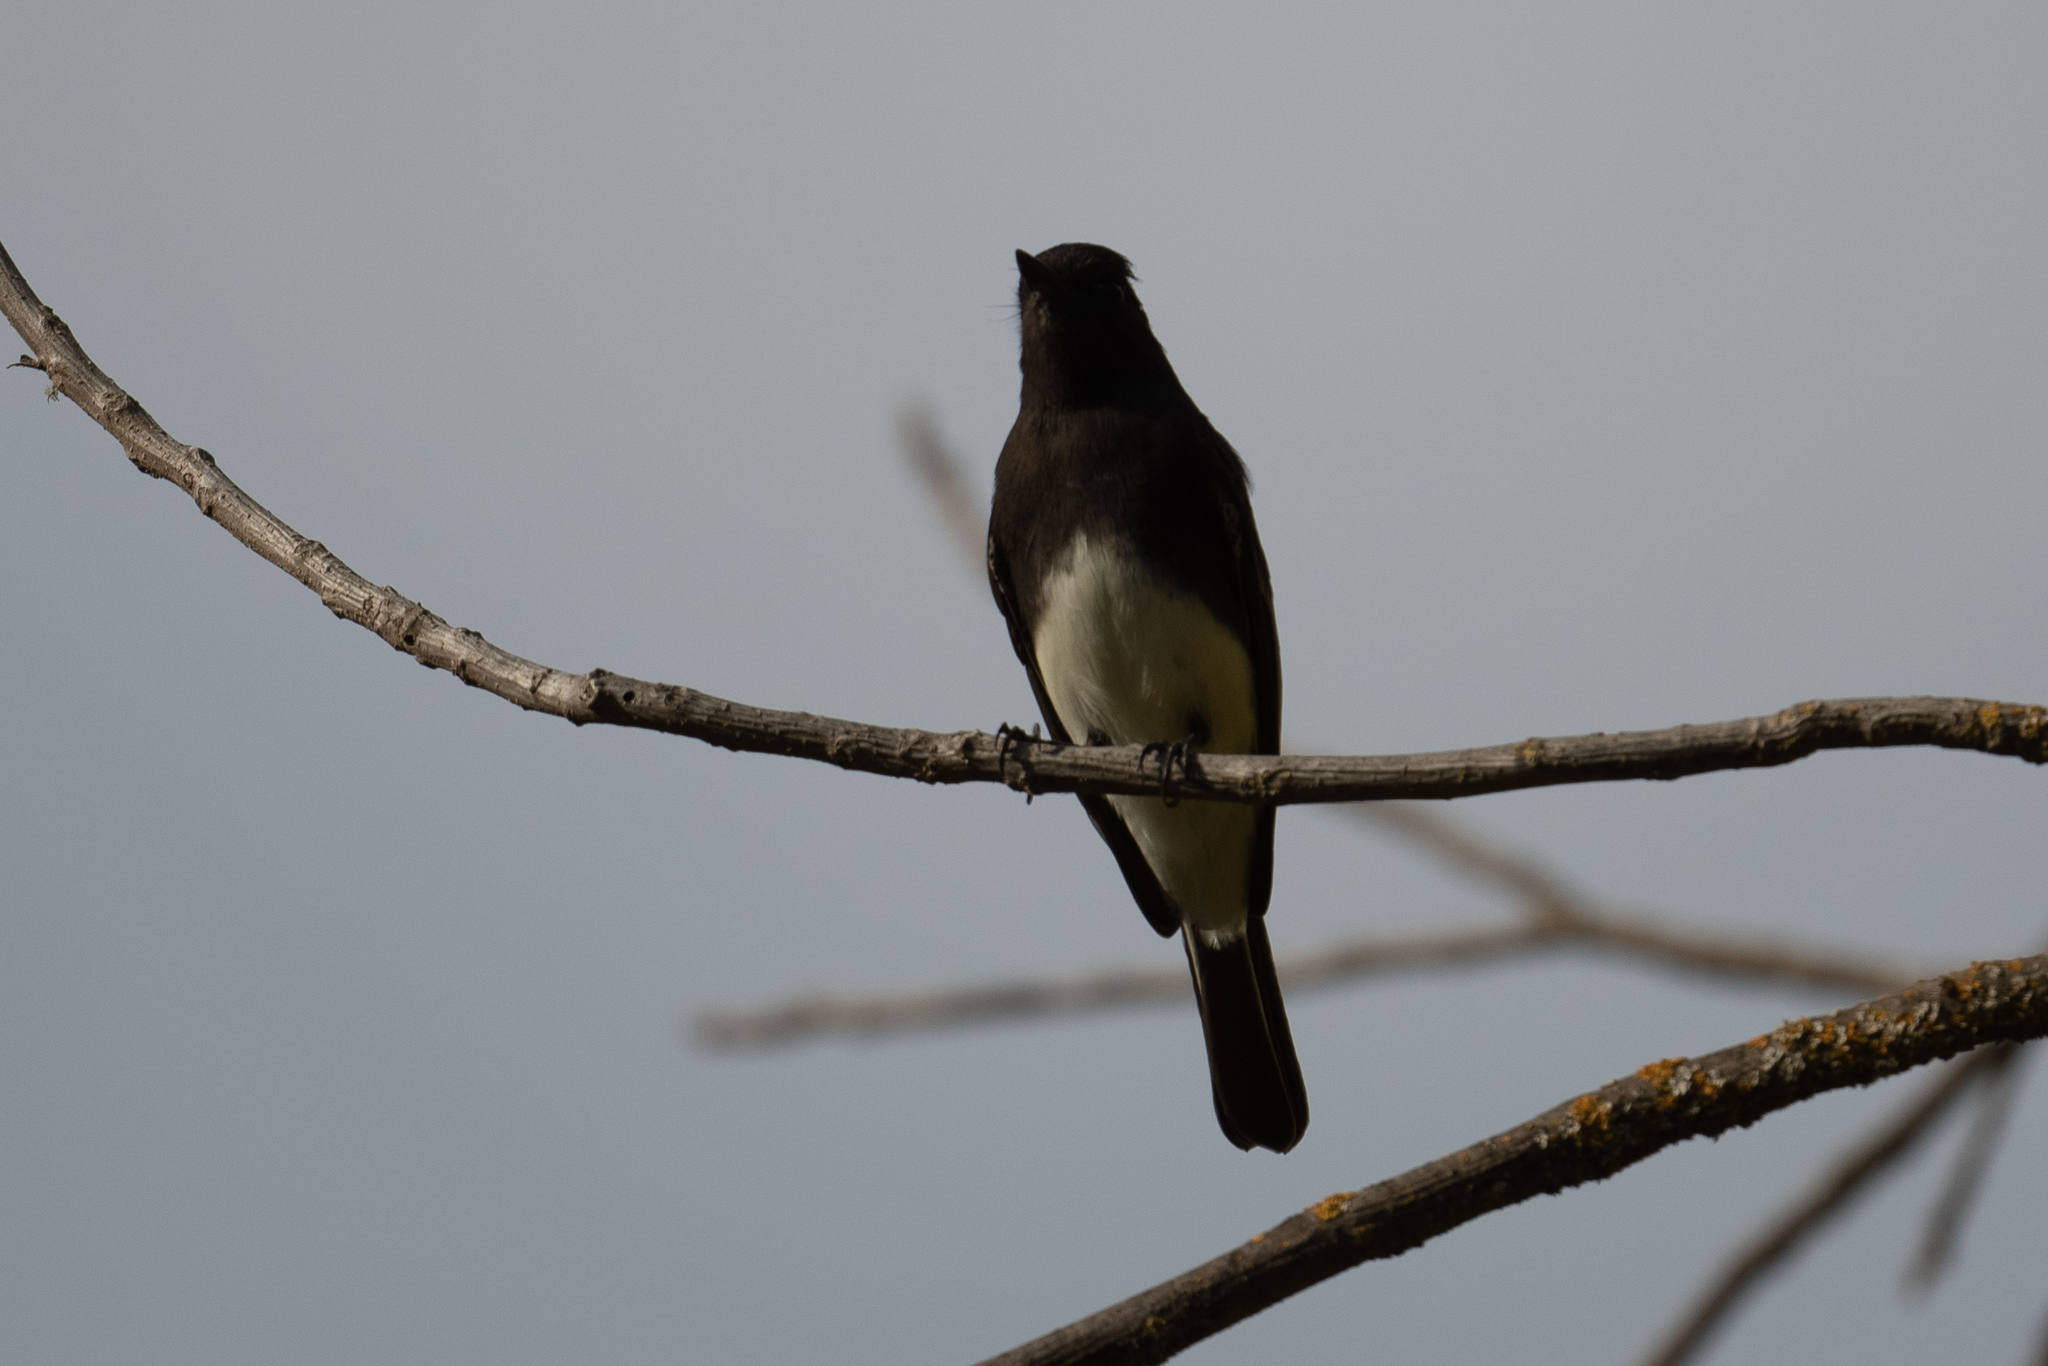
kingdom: Animalia
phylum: Chordata
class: Aves
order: Passeriformes
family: Tyrannidae
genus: Sayornis
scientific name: Sayornis nigricans
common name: Black phoebe
